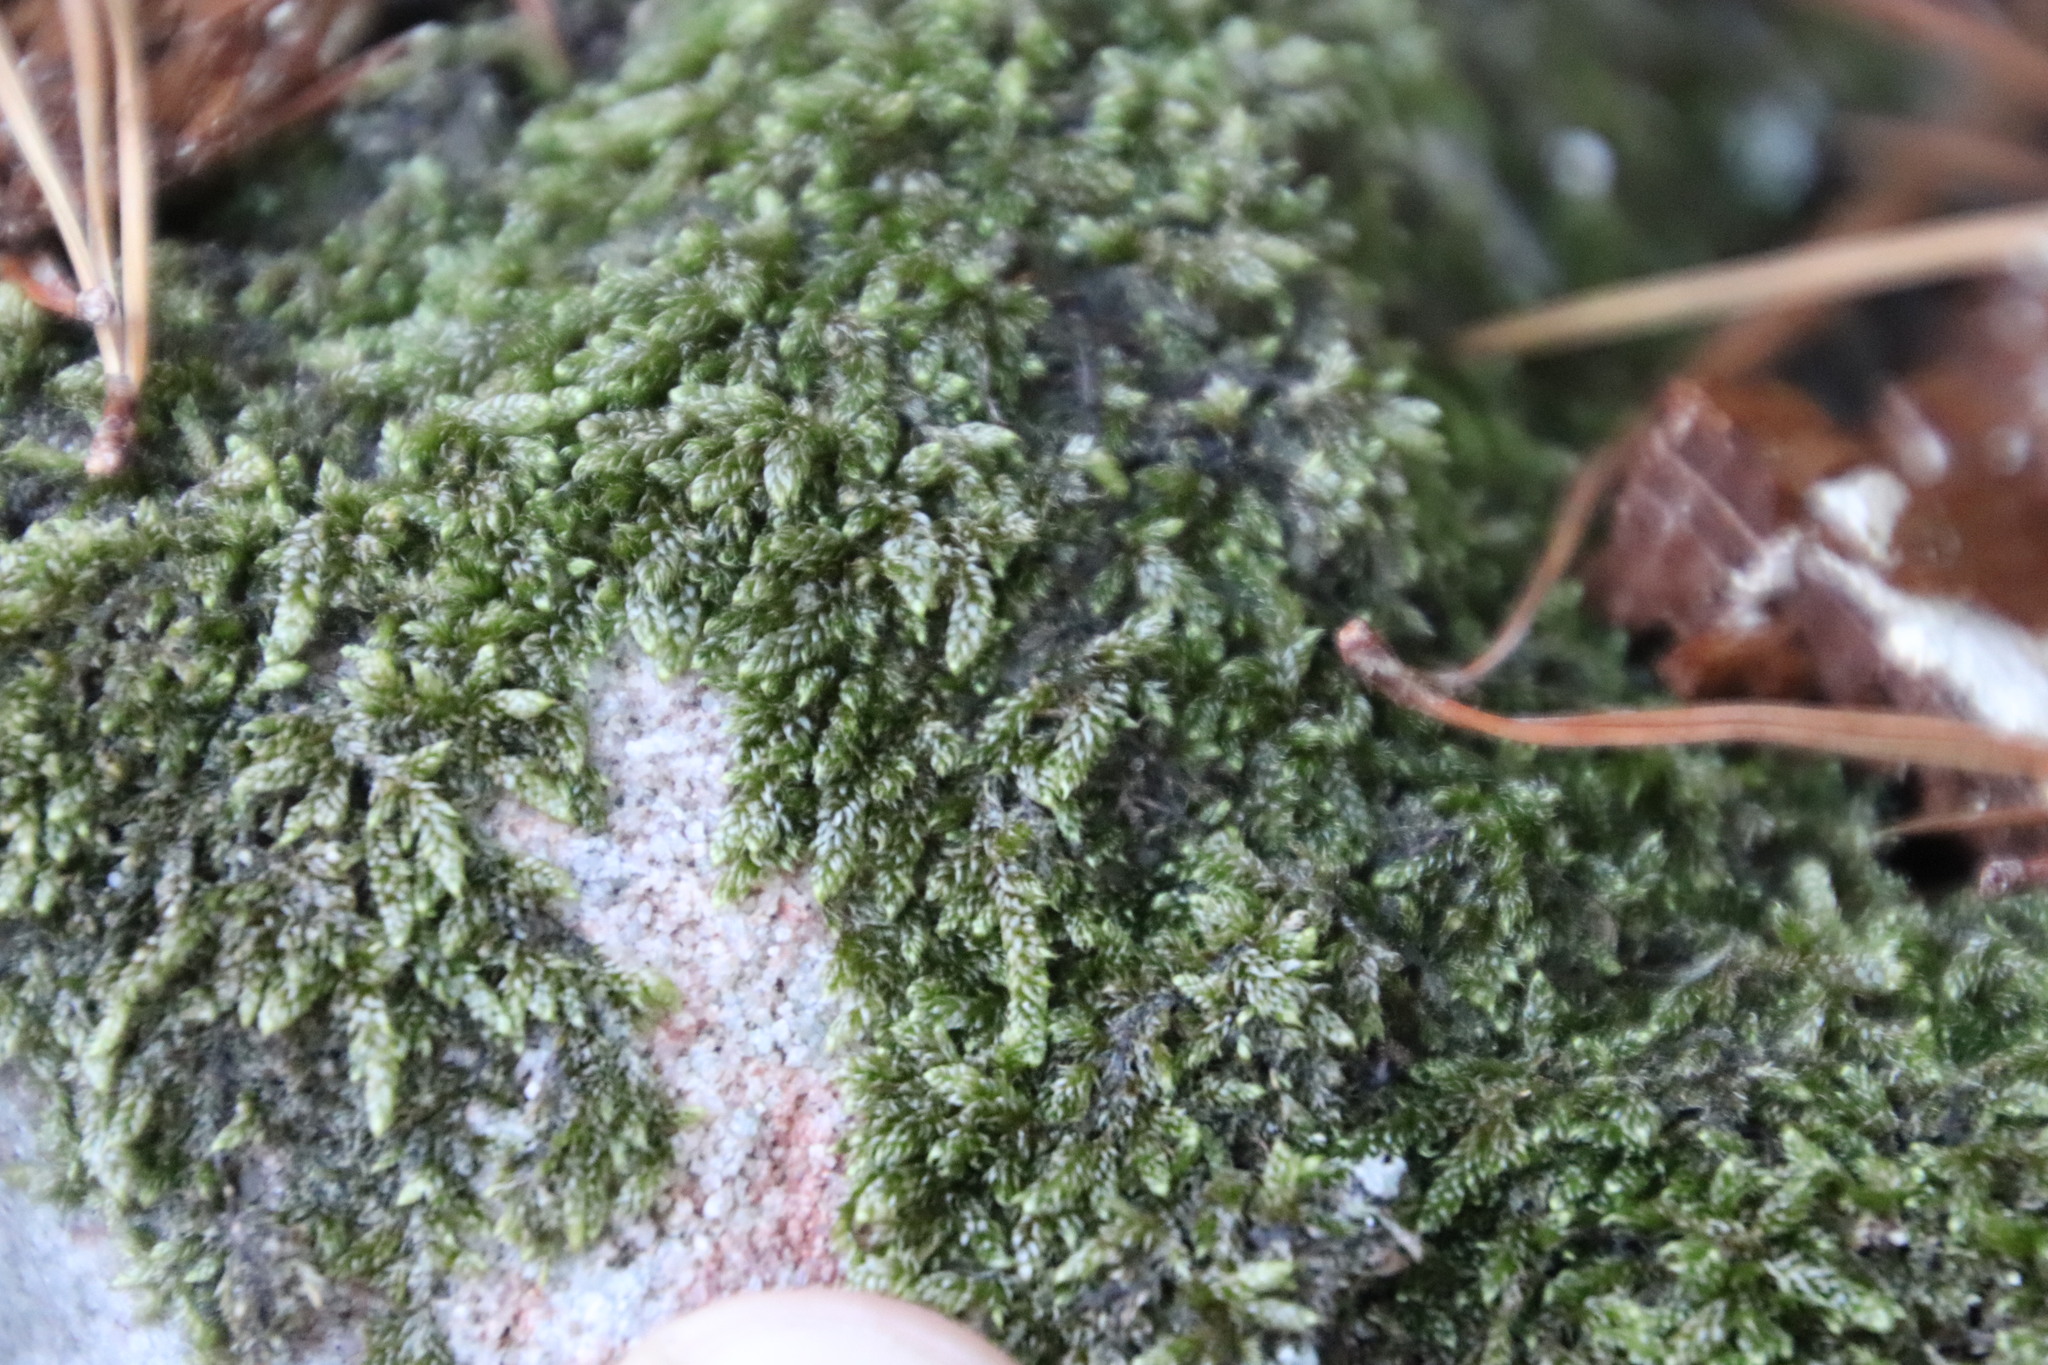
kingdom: Plantae
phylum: Bryophyta
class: Bryopsida
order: Hypnales
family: Hypnaceae
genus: Hypnum
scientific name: Hypnum cupressiforme
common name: Cypress-leaved plait-moss
